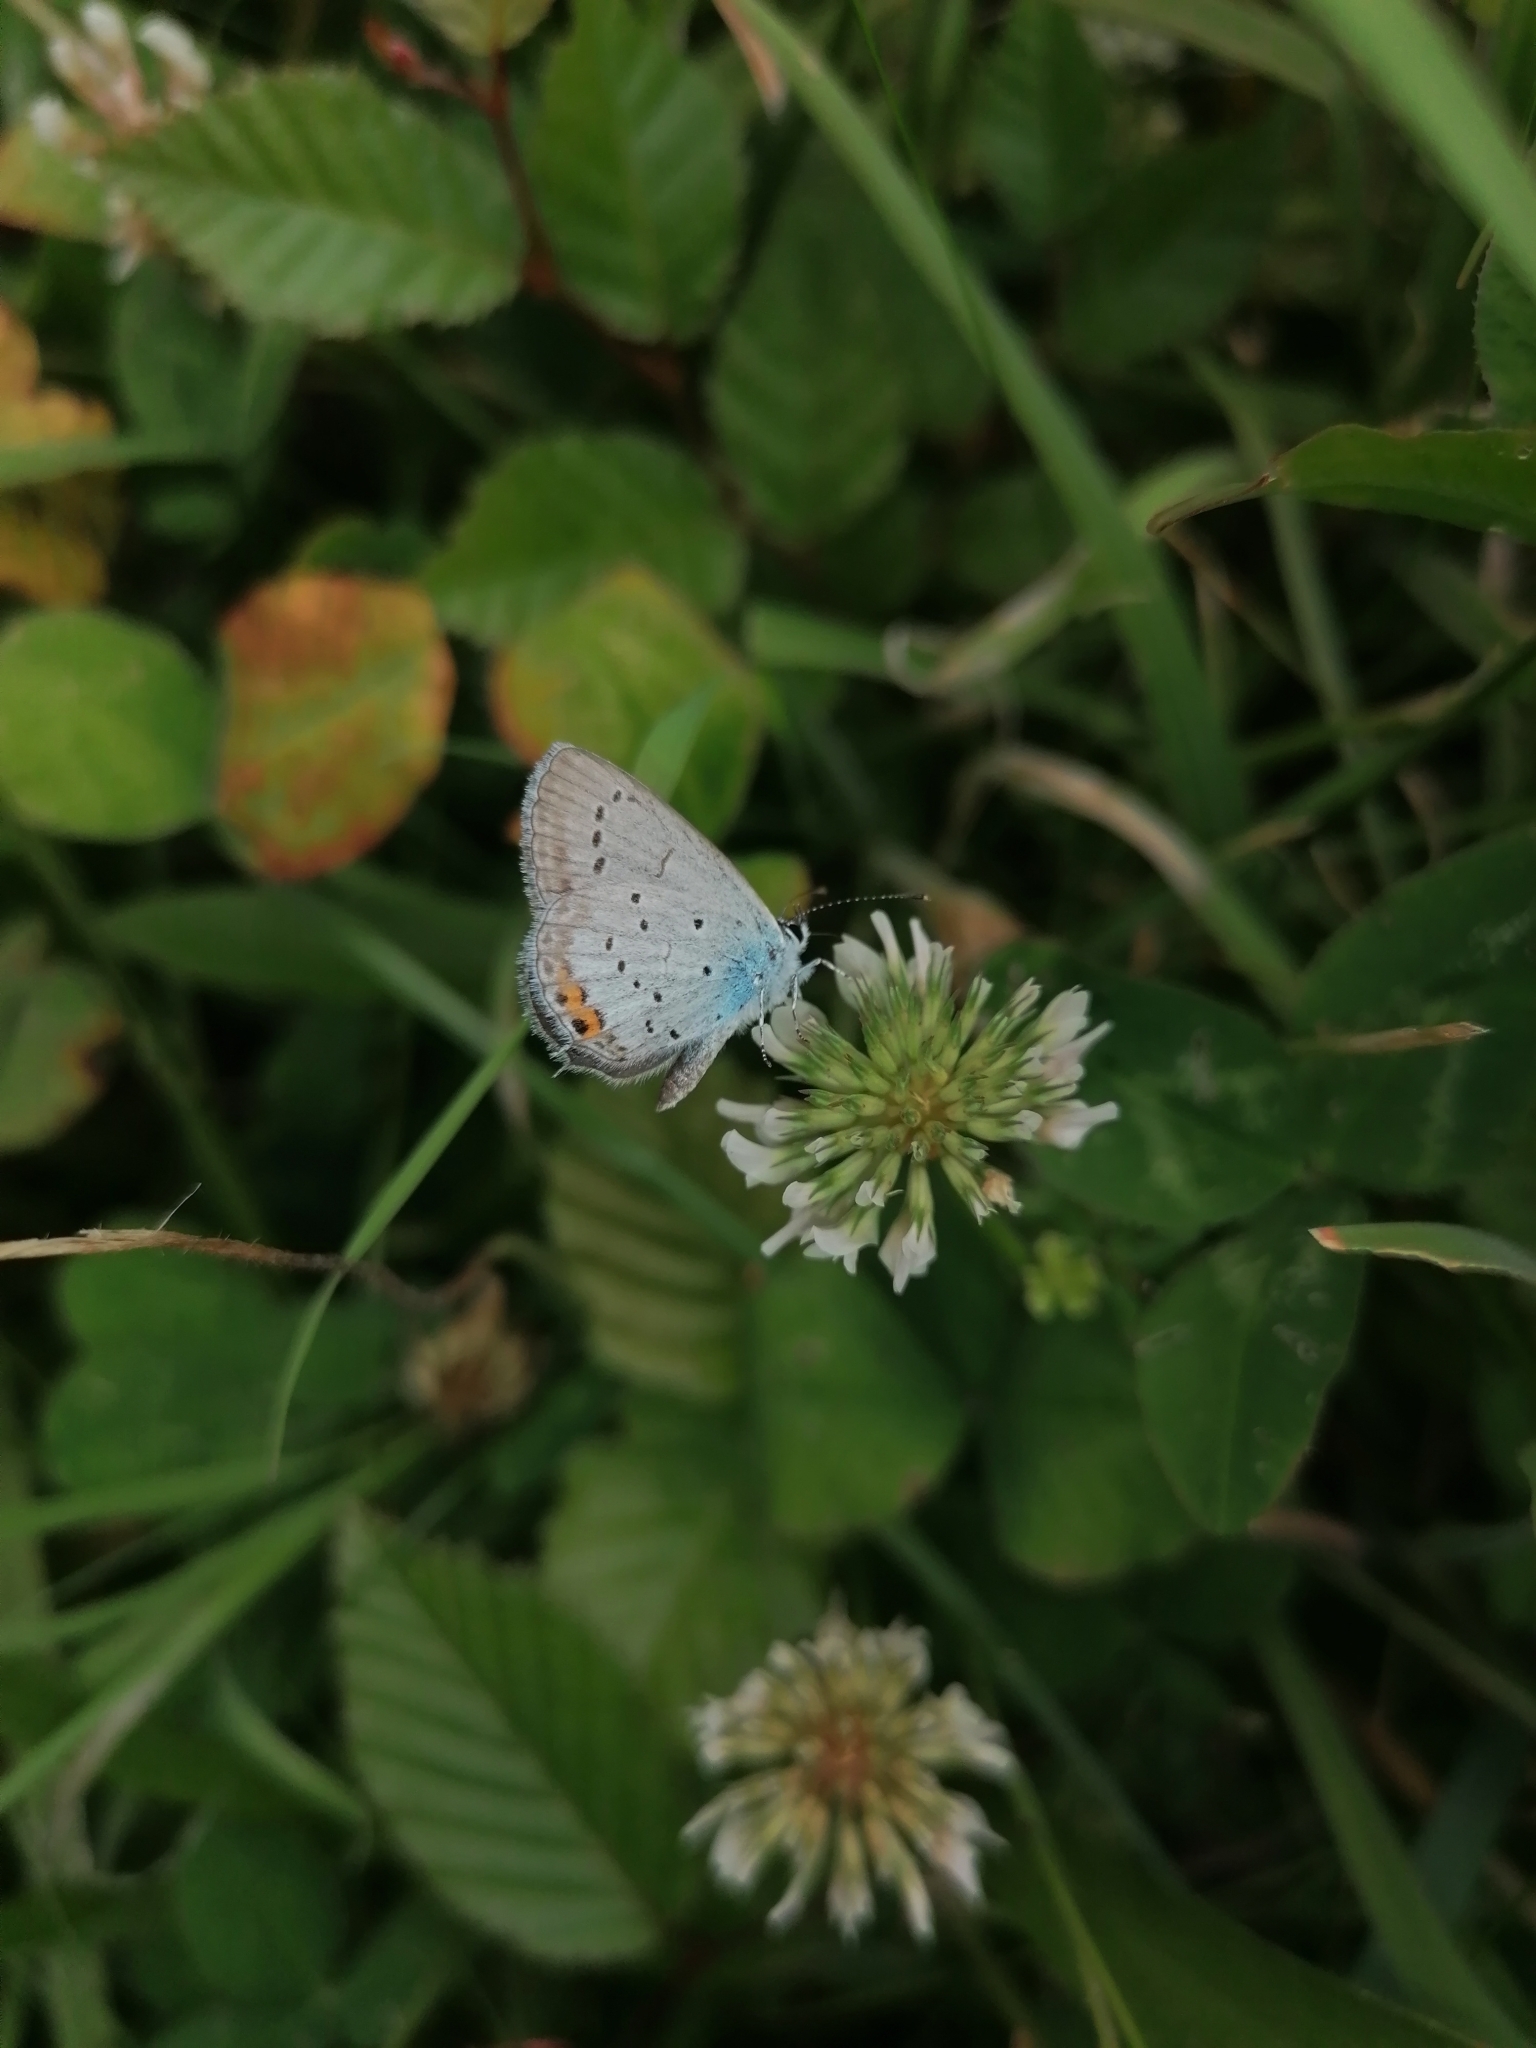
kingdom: Animalia
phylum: Arthropoda
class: Insecta
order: Lepidoptera
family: Lycaenidae
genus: Elkalyce
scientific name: Elkalyce argiades
